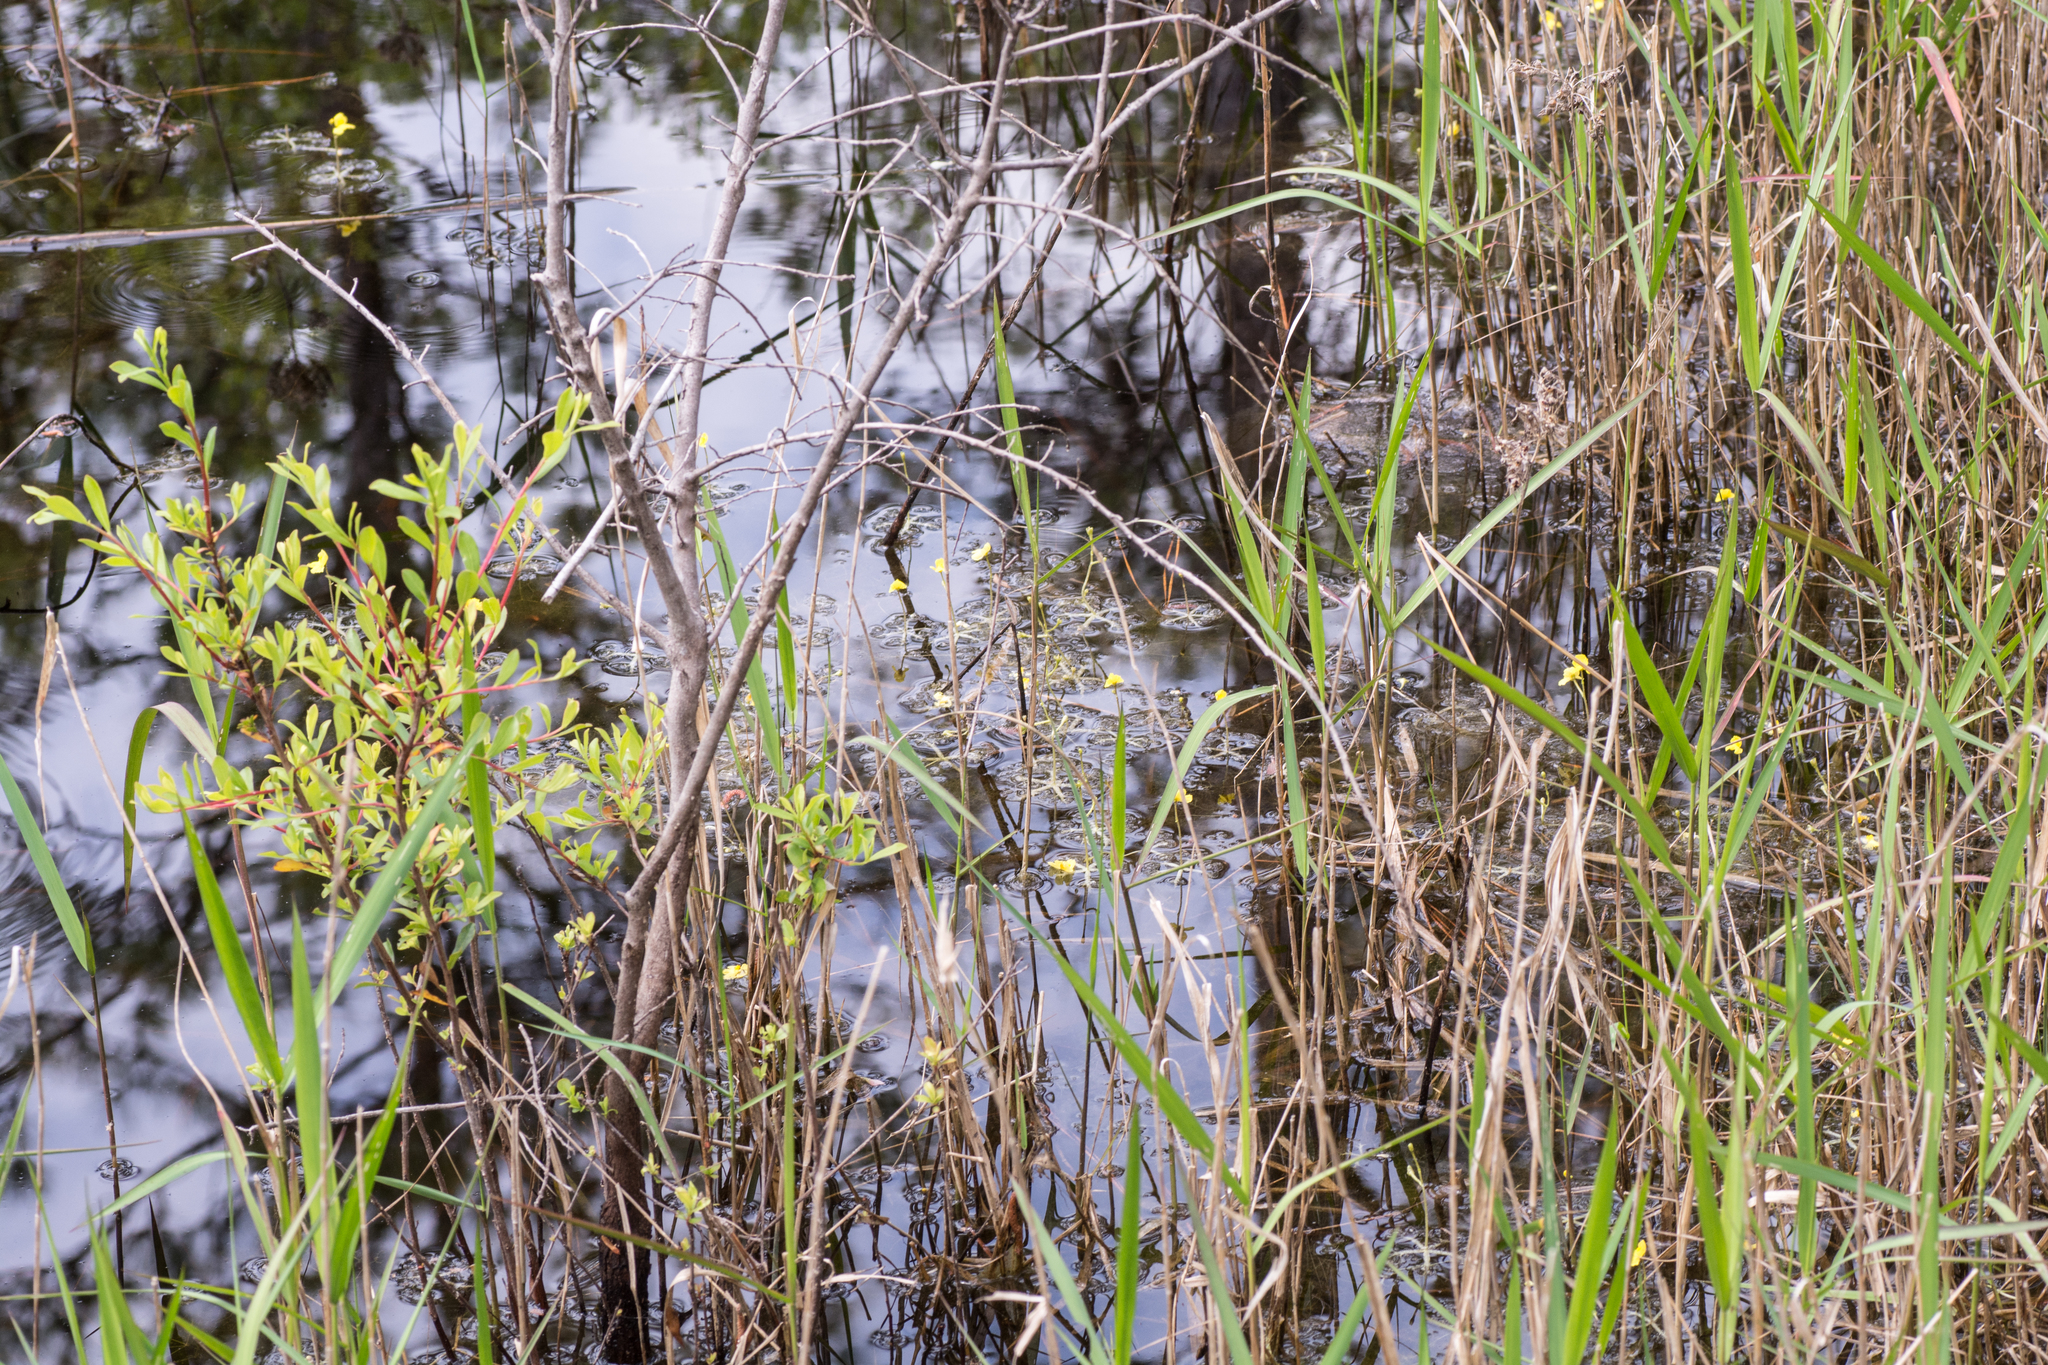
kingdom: Plantae
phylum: Tracheophyta
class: Magnoliopsida
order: Lamiales
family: Lentibulariaceae
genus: Utricularia
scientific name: Utricularia radiata
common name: Floating bladderwort
